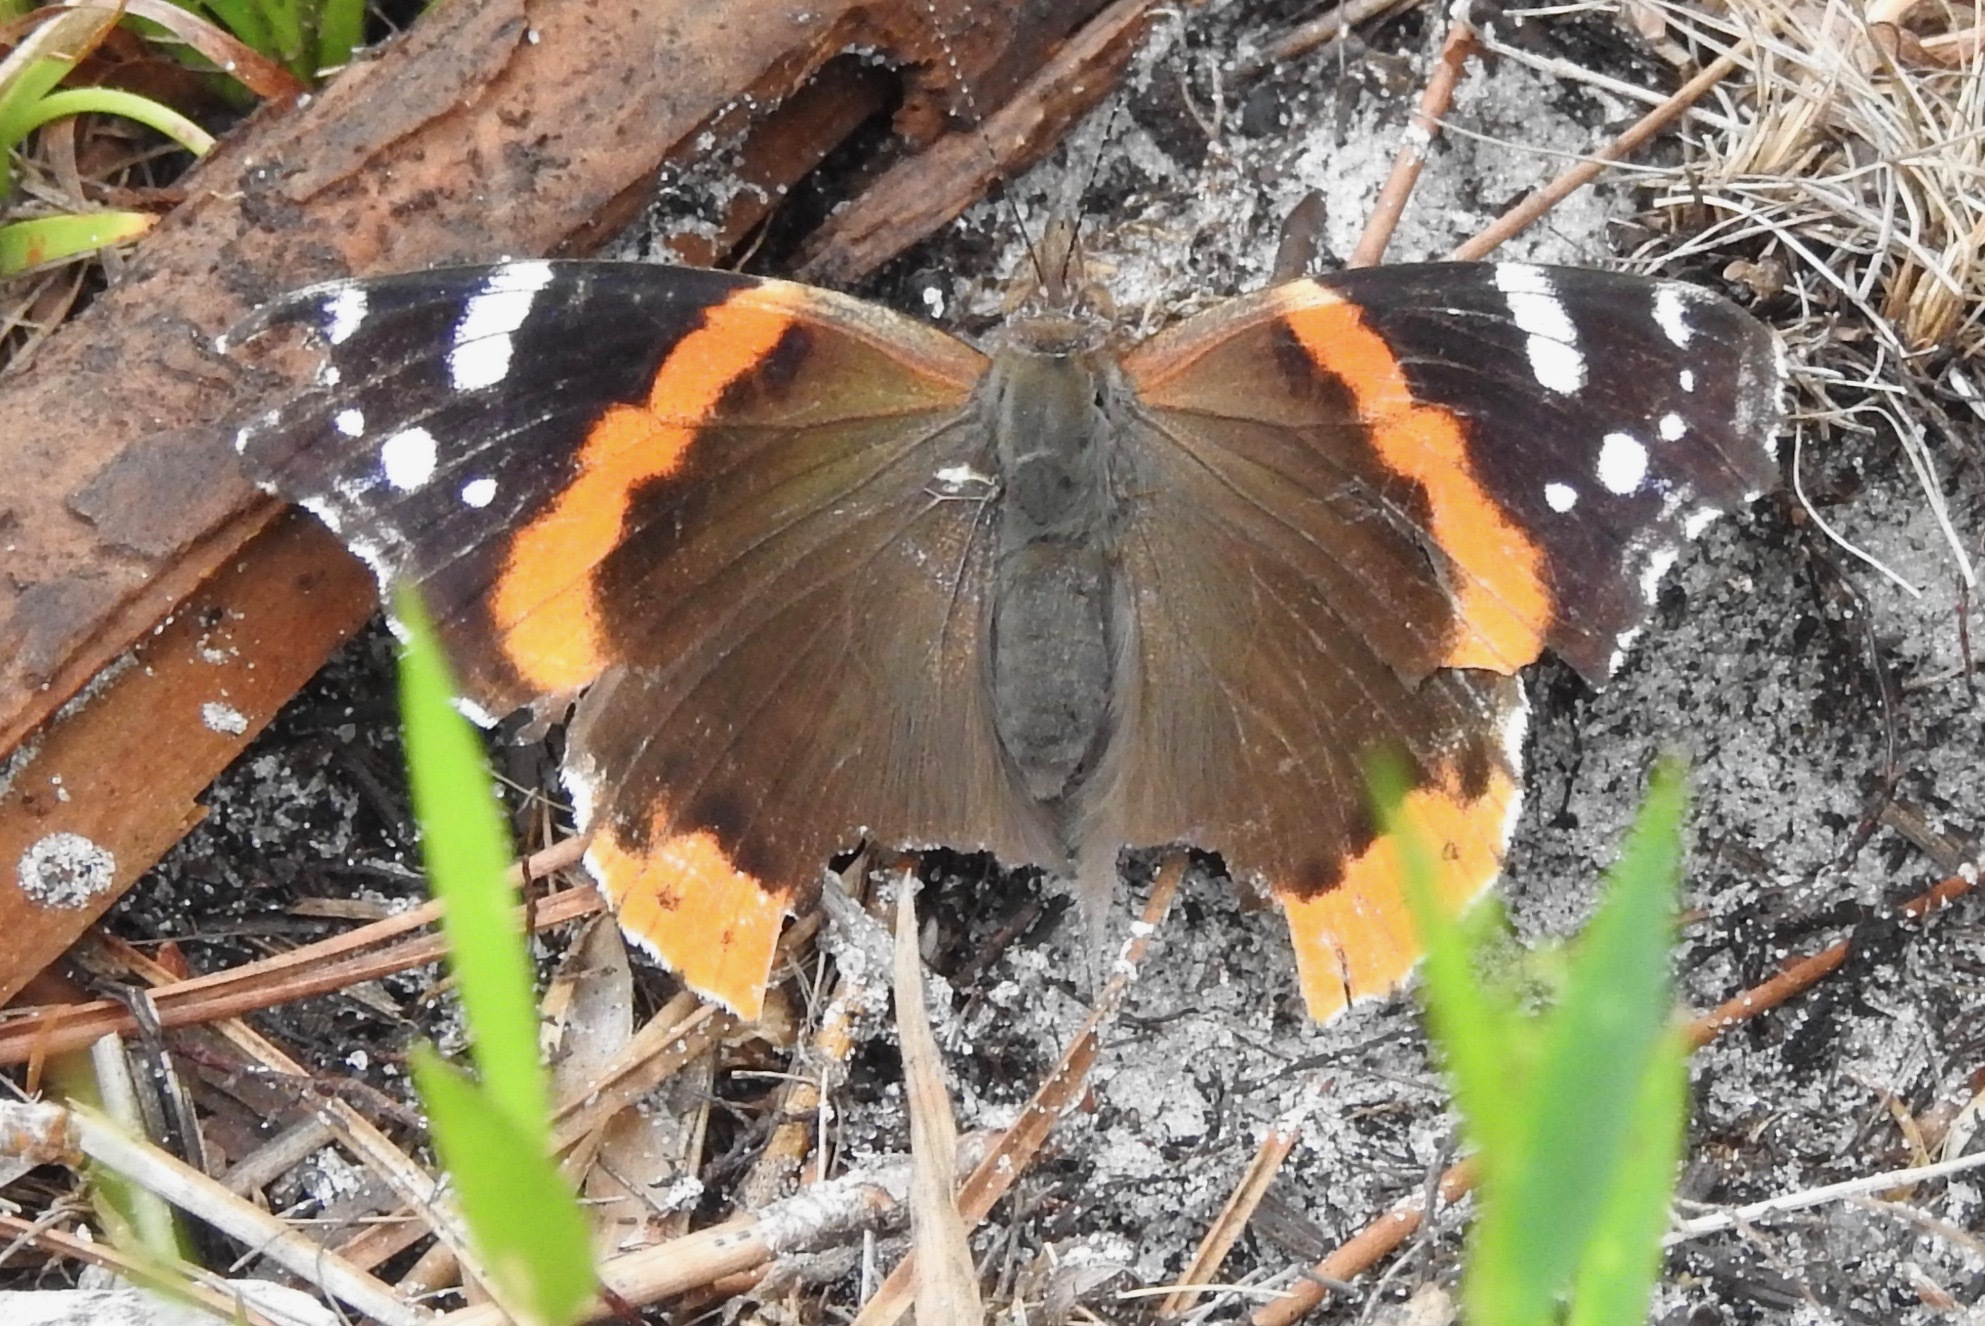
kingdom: Animalia
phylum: Arthropoda
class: Insecta
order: Lepidoptera
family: Nymphalidae
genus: Vanessa
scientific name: Vanessa atalanta
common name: Red admiral
